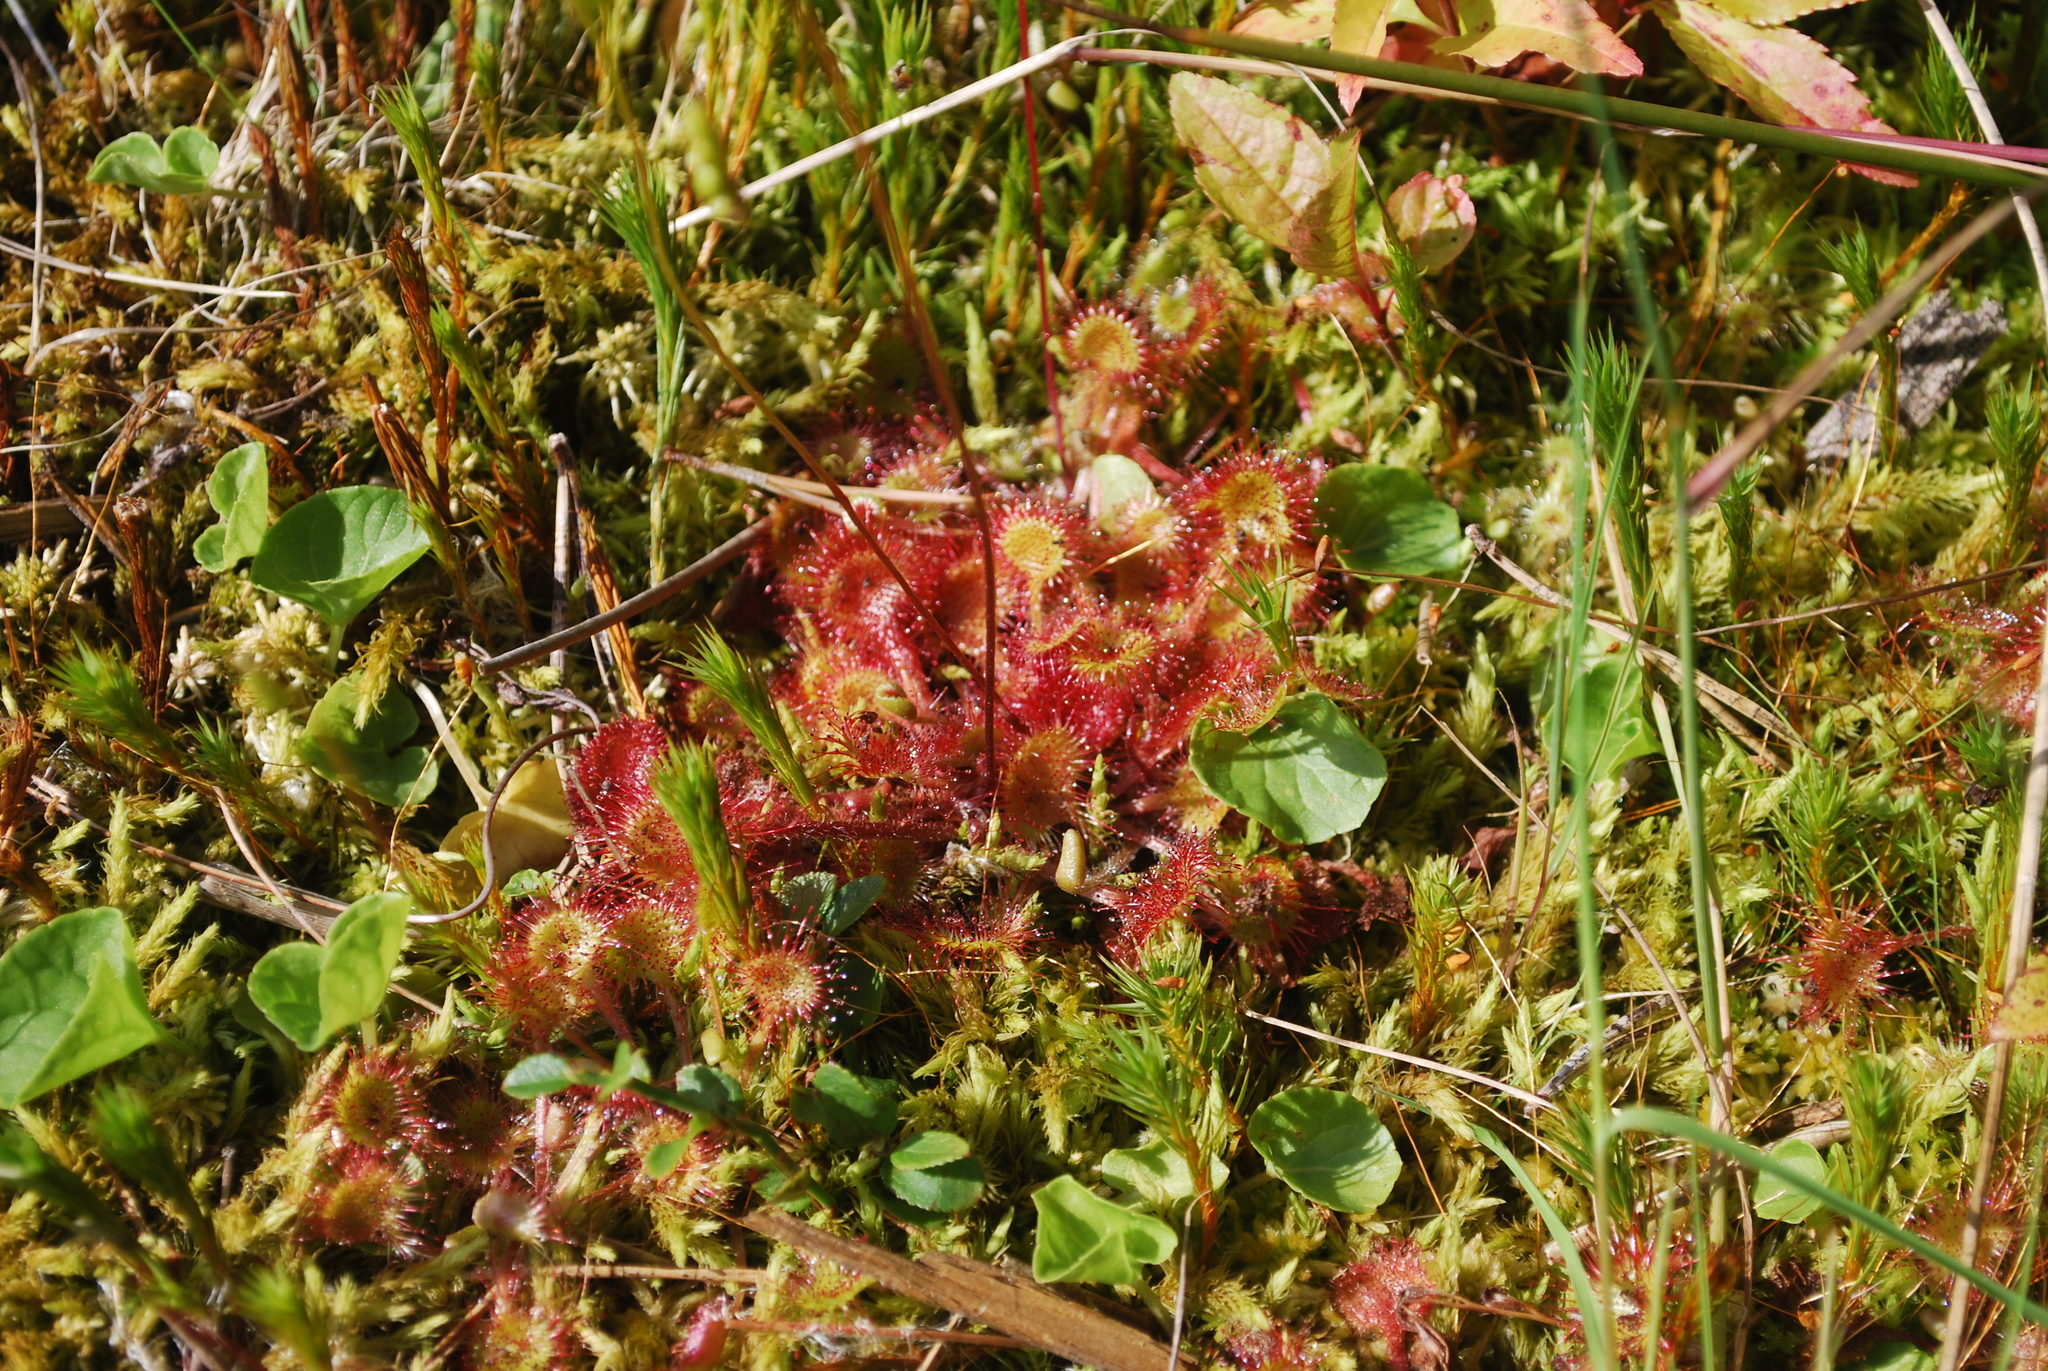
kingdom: Plantae
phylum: Tracheophyta
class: Magnoliopsida
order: Caryophyllales
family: Droseraceae
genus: Drosera
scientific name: Drosera rotundifolia
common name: Round-leaved sundew
